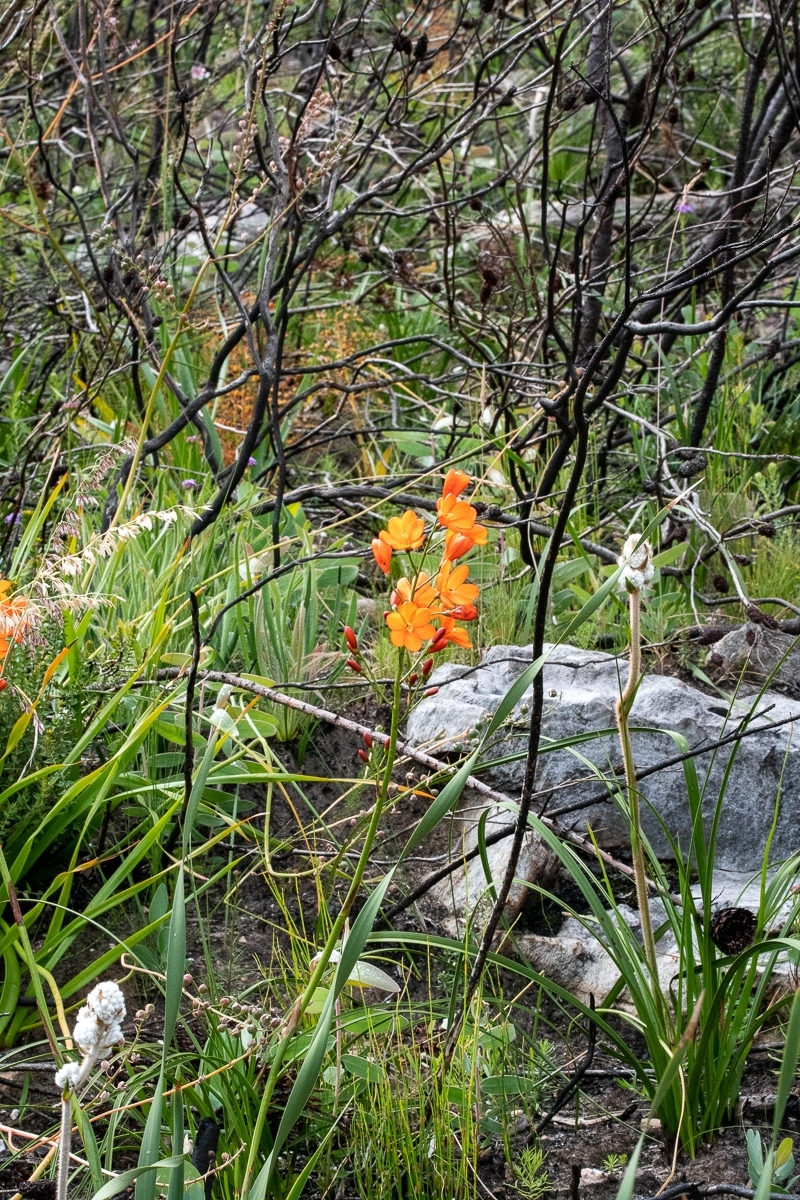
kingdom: Plantae
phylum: Tracheophyta
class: Liliopsida
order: Asparagales
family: Iridaceae
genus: Pillansia
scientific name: Pillansia templemannii
